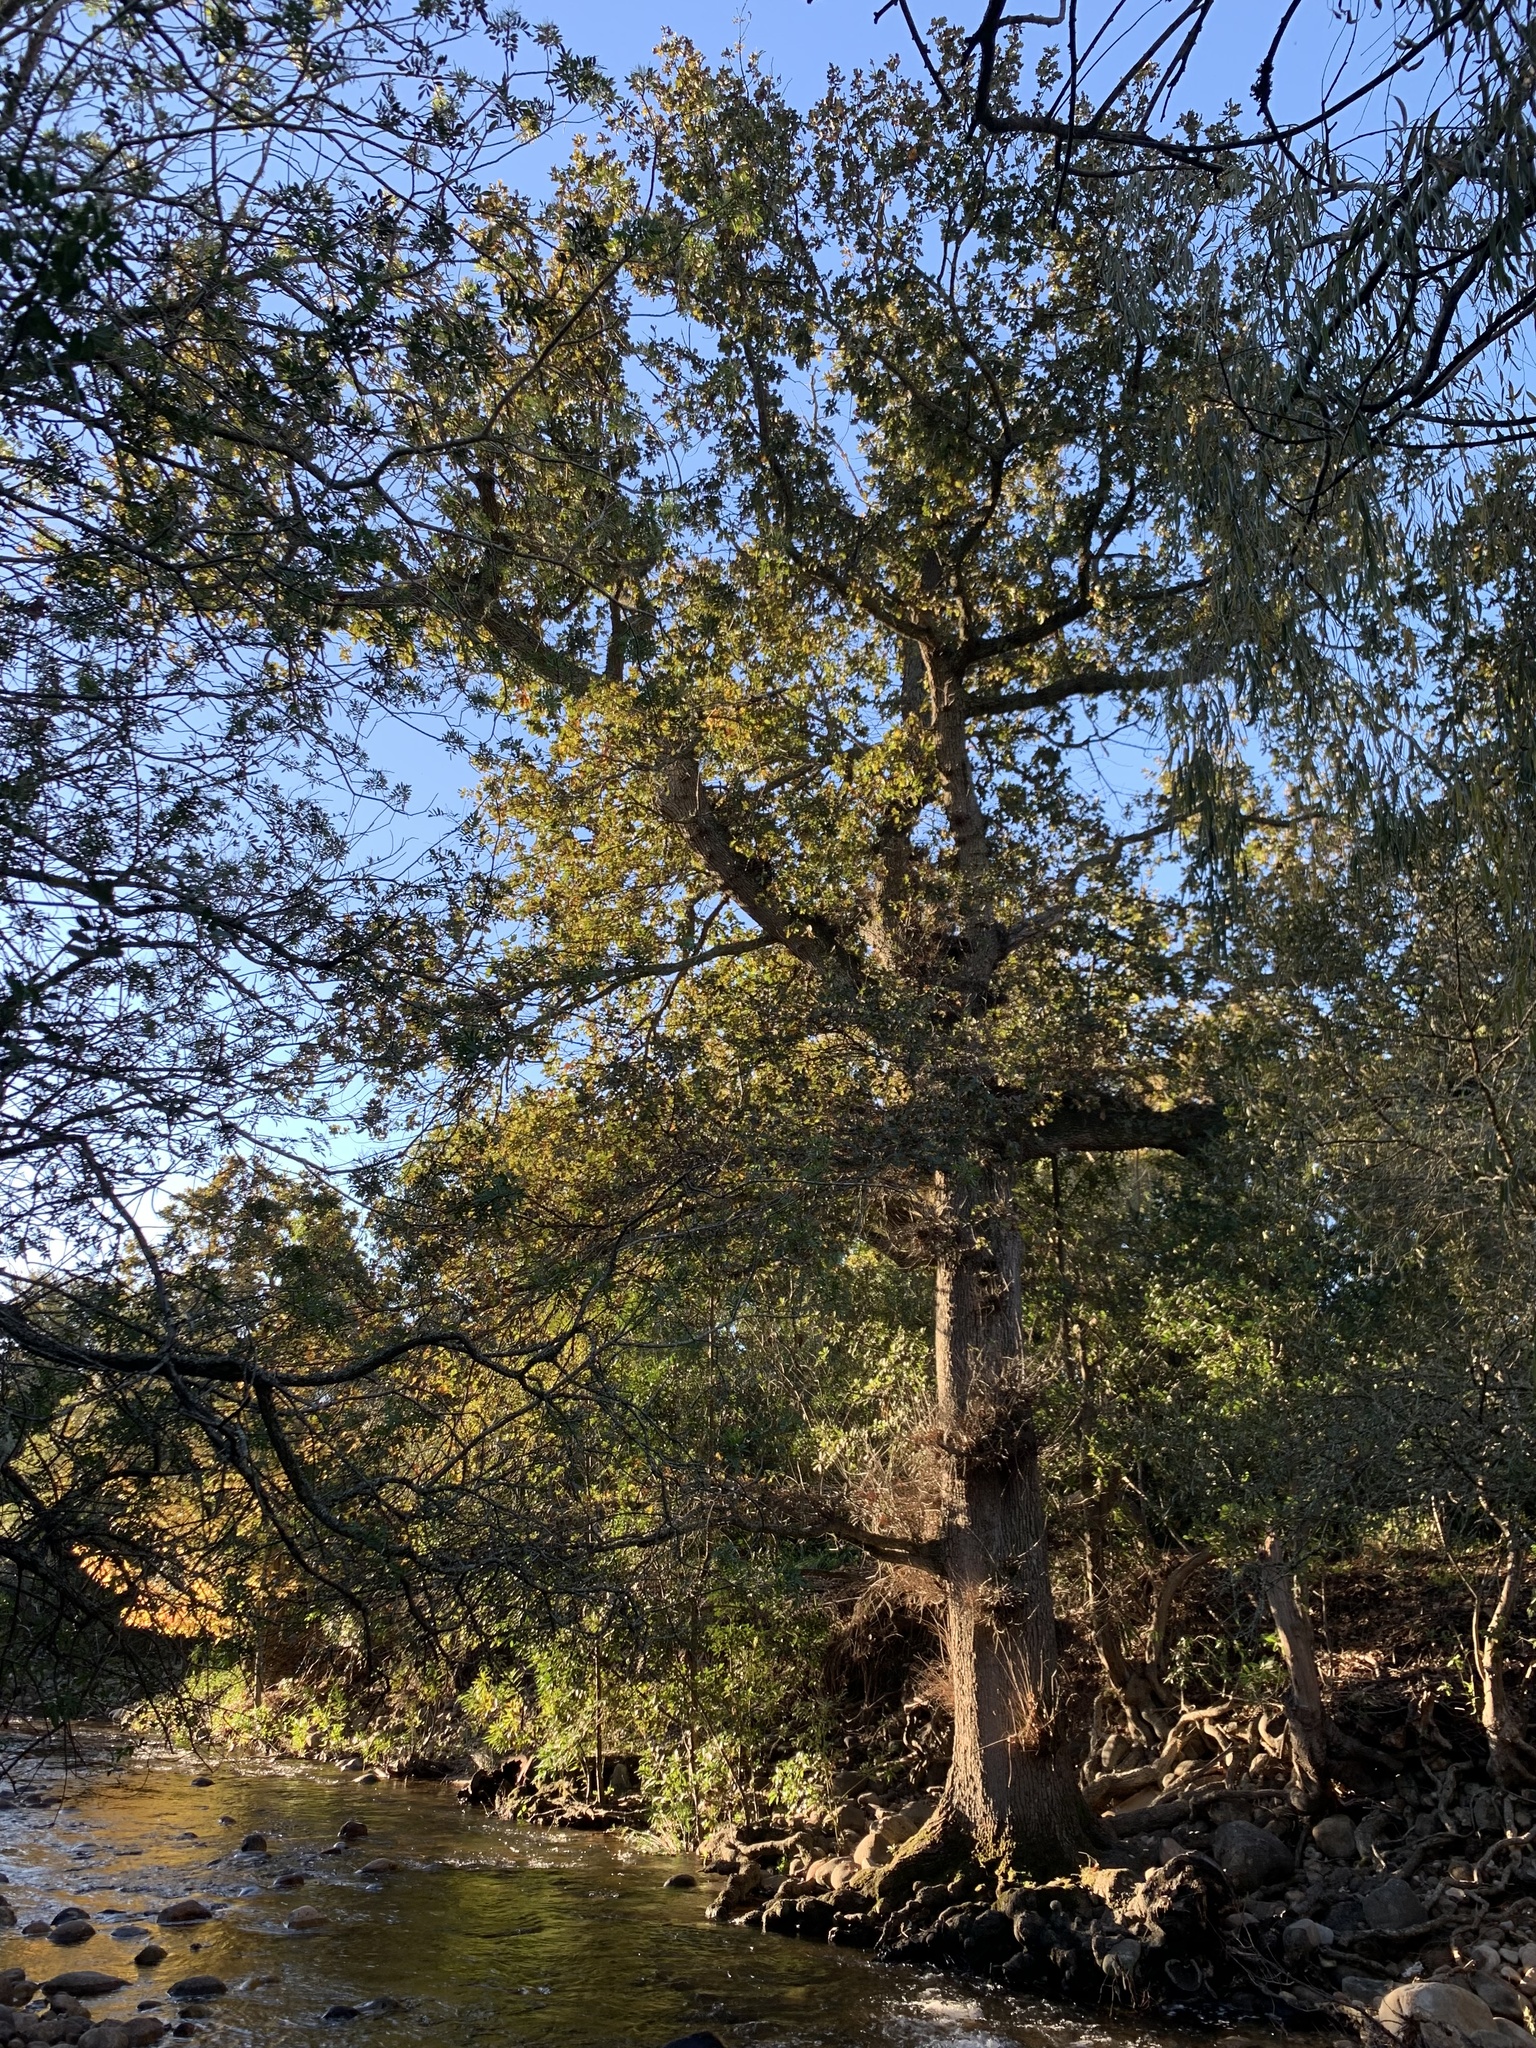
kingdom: Plantae
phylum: Tracheophyta
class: Magnoliopsida
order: Fagales
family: Fagaceae
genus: Quercus
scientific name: Quercus robur
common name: Pedunculate oak
